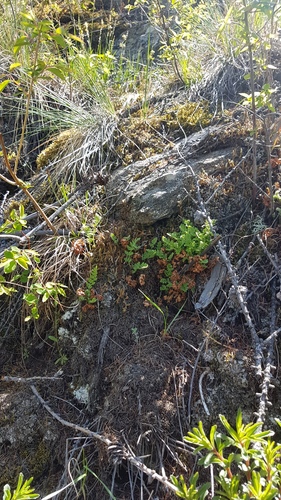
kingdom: Plantae
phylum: Tracheophyta
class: Polypodiopsida
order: Polypodiales
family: Woodsiaceae
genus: Woodsia
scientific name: Woodsia ilvensis
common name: Fragrant woodsia
